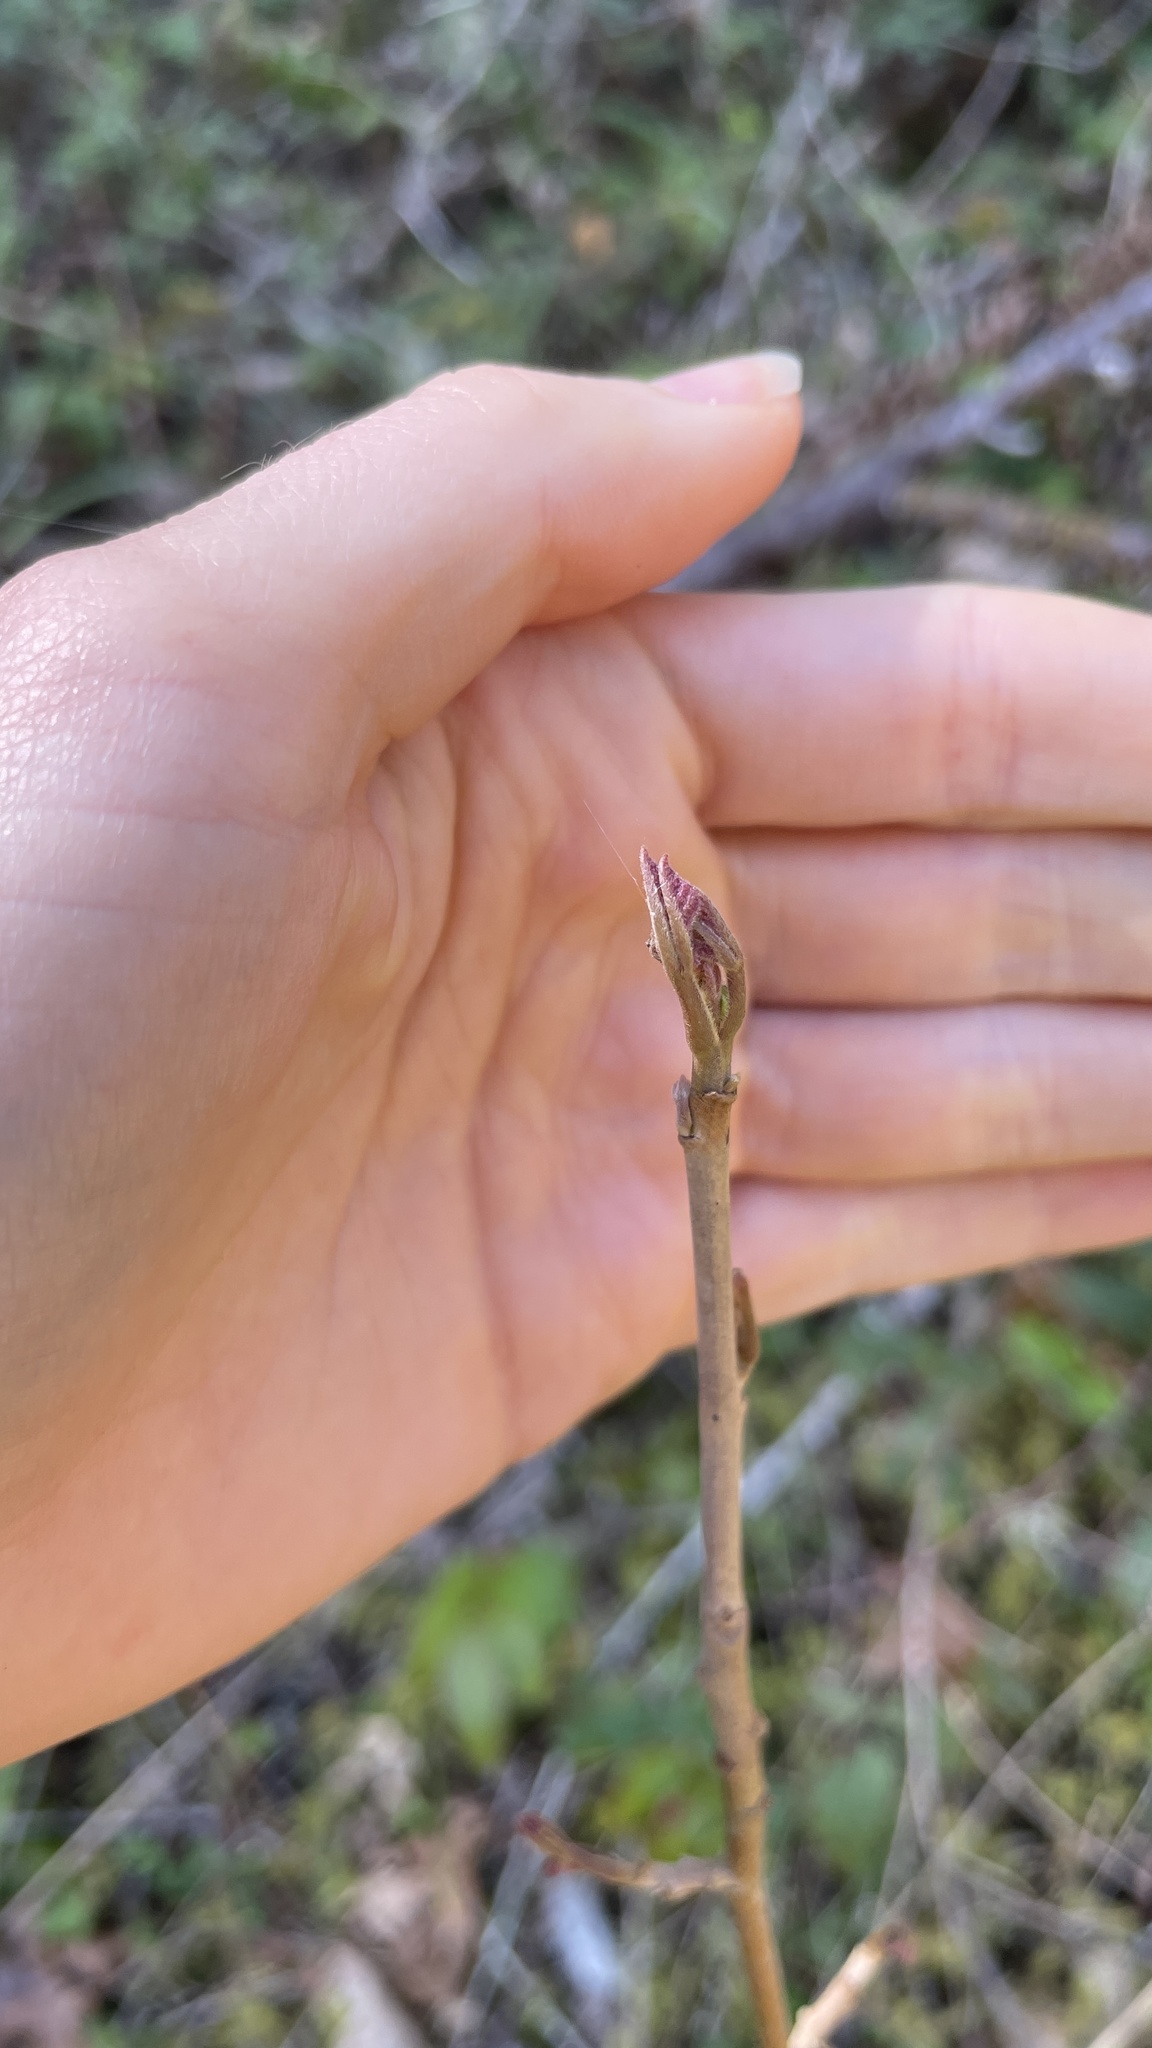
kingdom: Plantae
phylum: Tracheophyta
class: Magnoliopsida
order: Sapindales
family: Anacardiaceae
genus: Toxicodendron
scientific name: Toxicodendron diversilobum
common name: Pacific poison-oak
